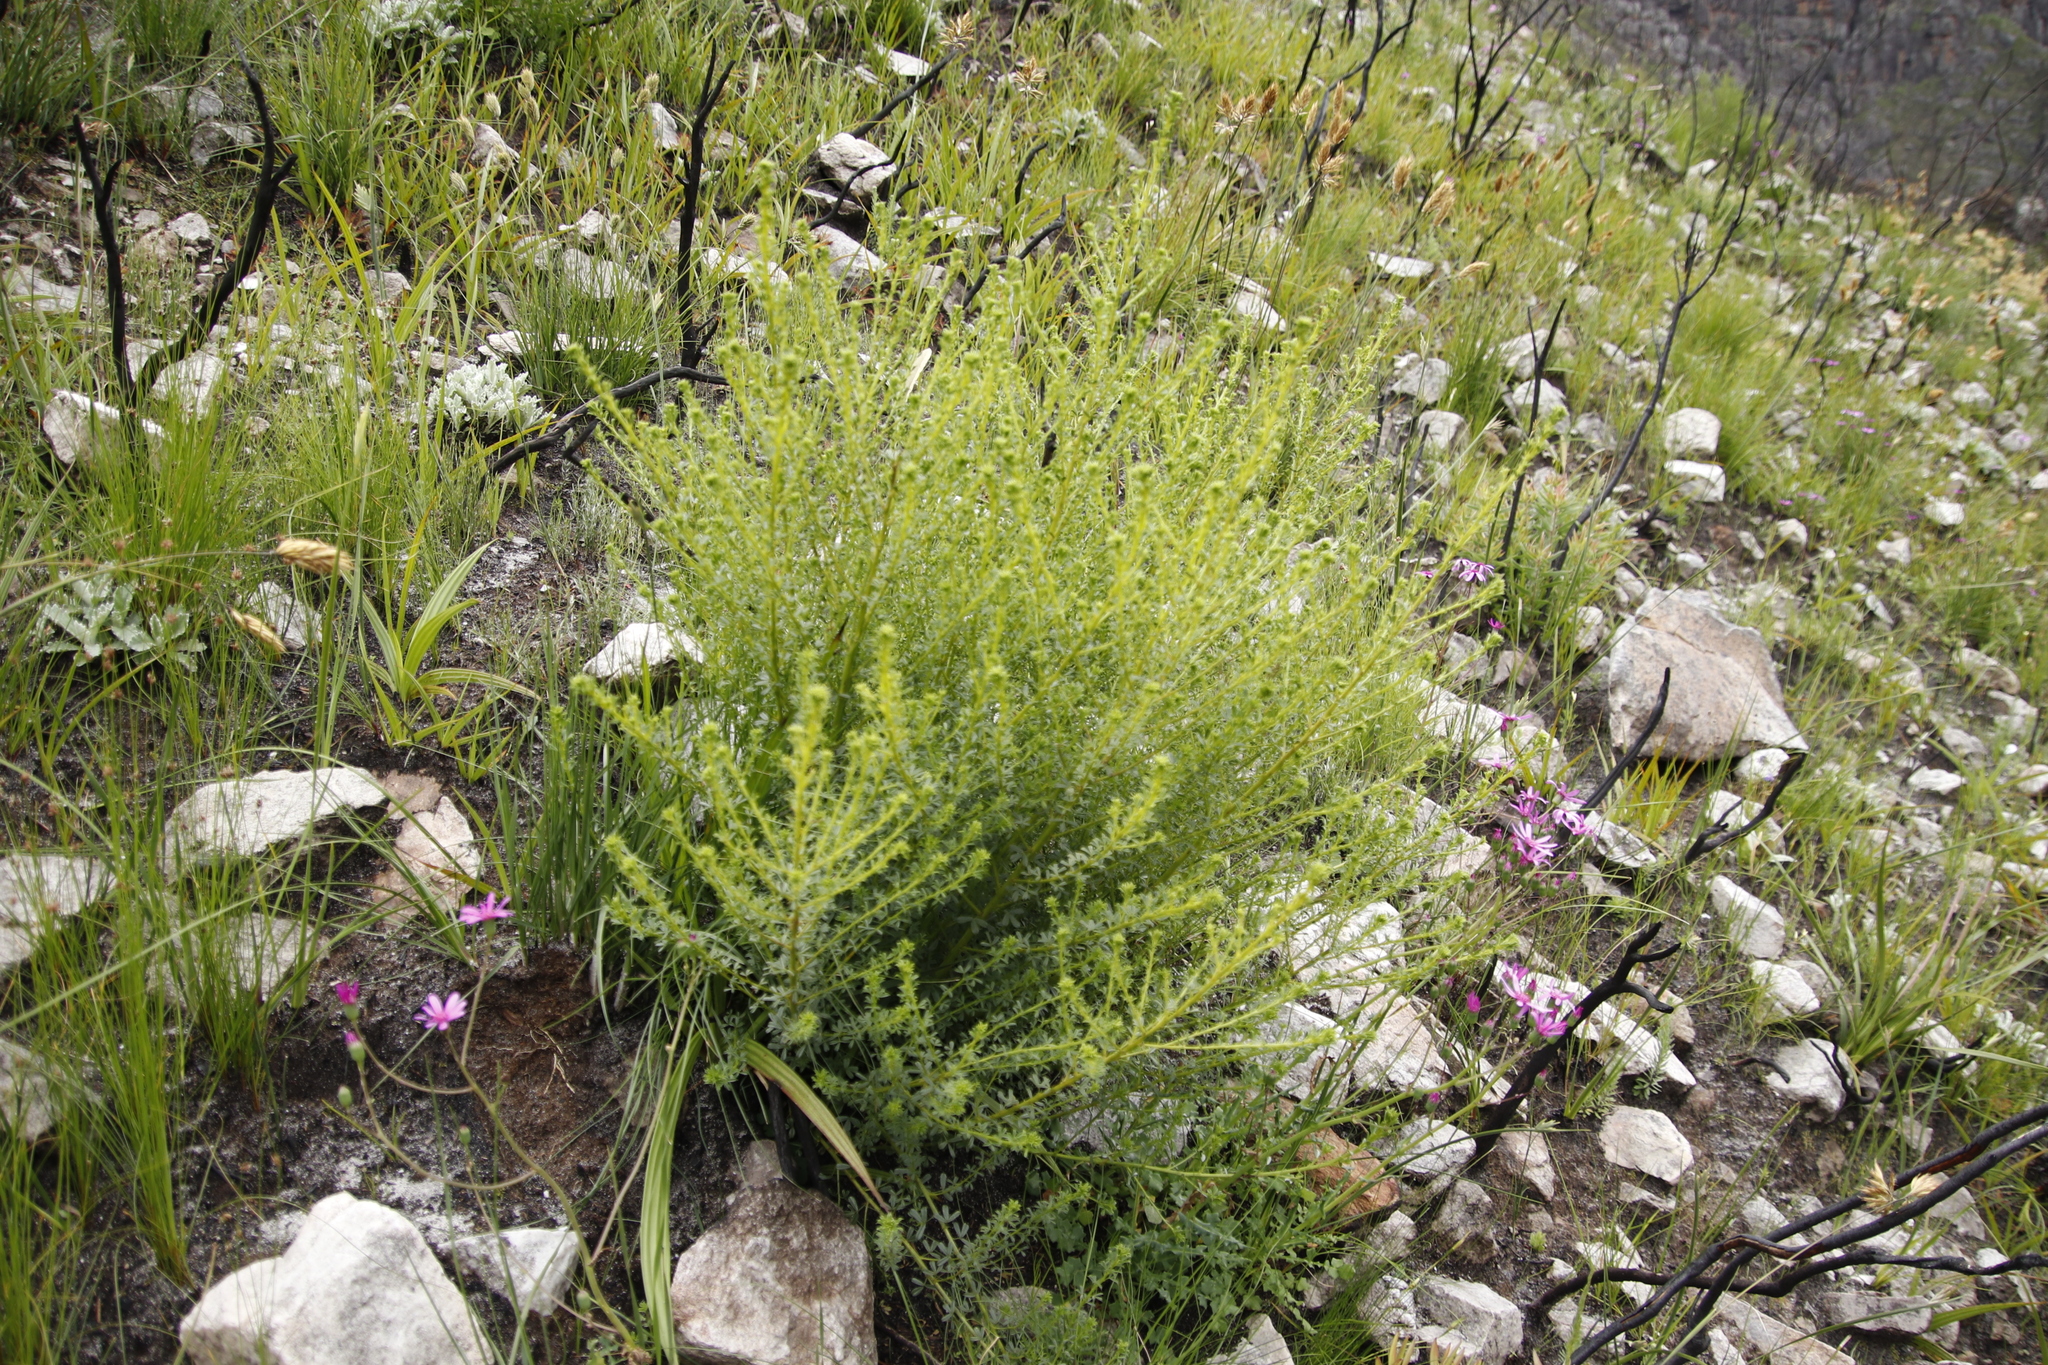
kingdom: Plantae
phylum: Tracheophyta
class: Magnoliopsida
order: Fabales
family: Fabaceae
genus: Psoralea
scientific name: Psoralea aculeata
